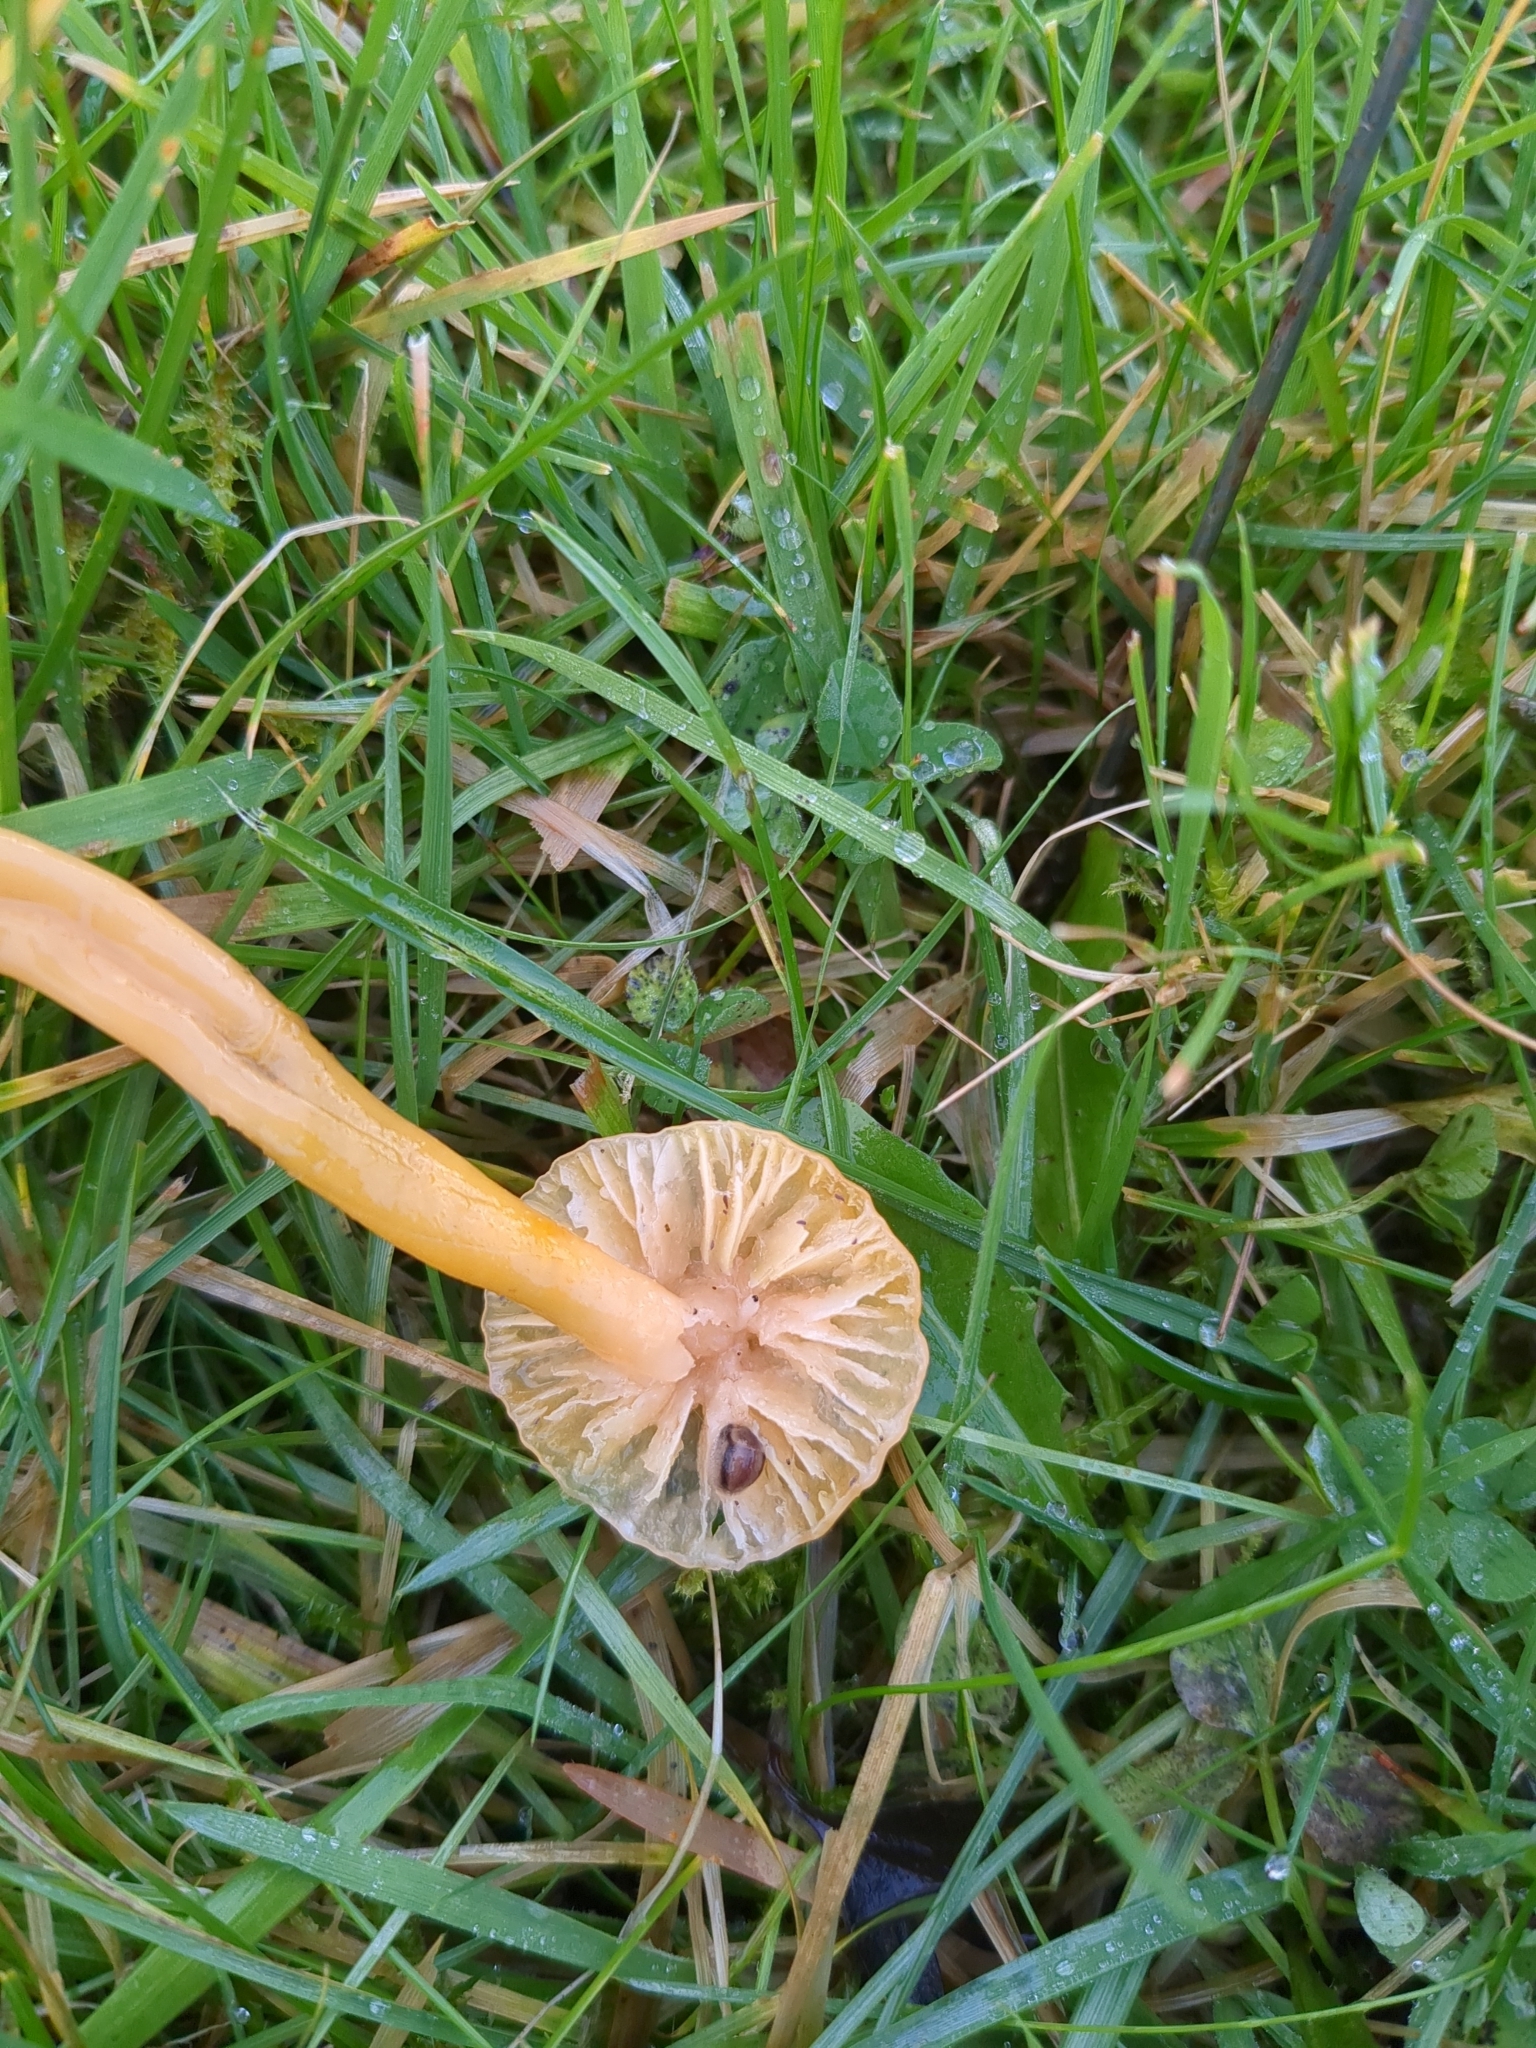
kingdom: Fungi
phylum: Basidiomycota
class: Agaricomycetes
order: Agaricales
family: Hygrophoraceae
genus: Gliophorus
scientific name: Gliophorus psittacinus
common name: Parrot wax-cap
